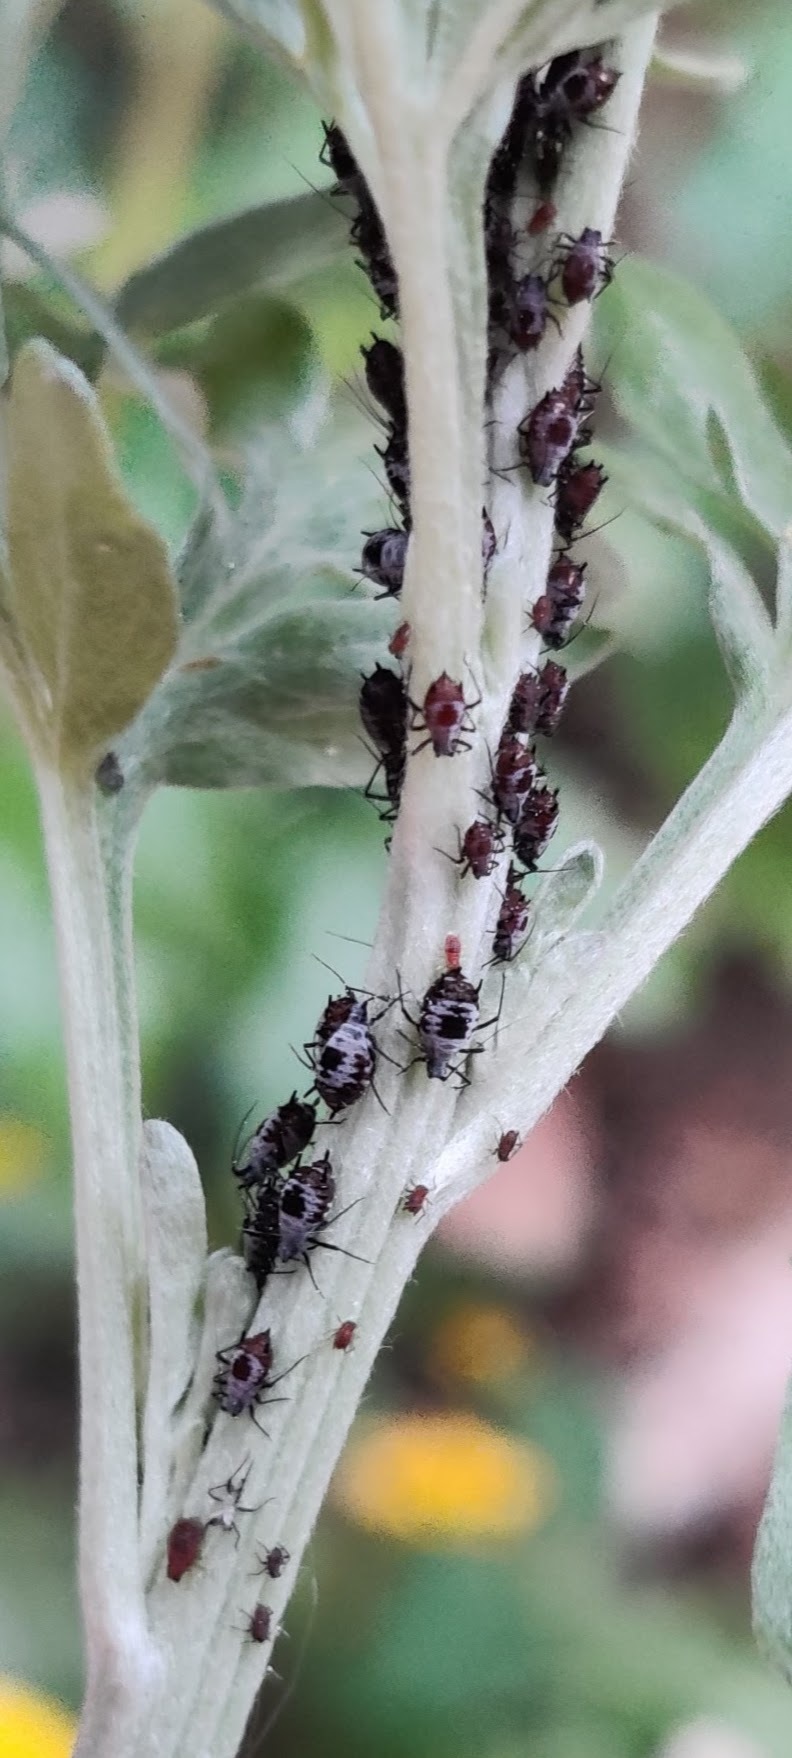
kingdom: Animalia
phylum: Arthropoda
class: Insecta
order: Hemiptera
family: Aphididae
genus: Macrosiphoniella
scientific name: Macrosiphoniella absinthii
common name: Aphid
